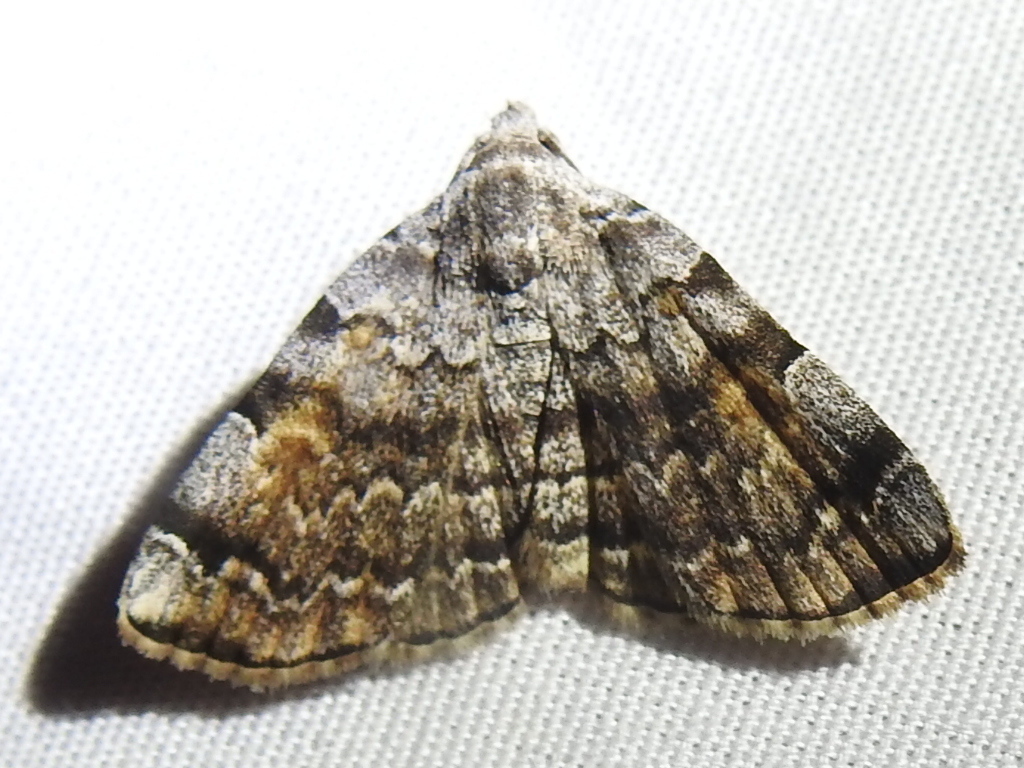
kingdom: Animalia
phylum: Arthropoda
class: Insecta
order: Lepidoptera
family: Erebidae
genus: Idia
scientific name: Idia americalis
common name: American idia moth
